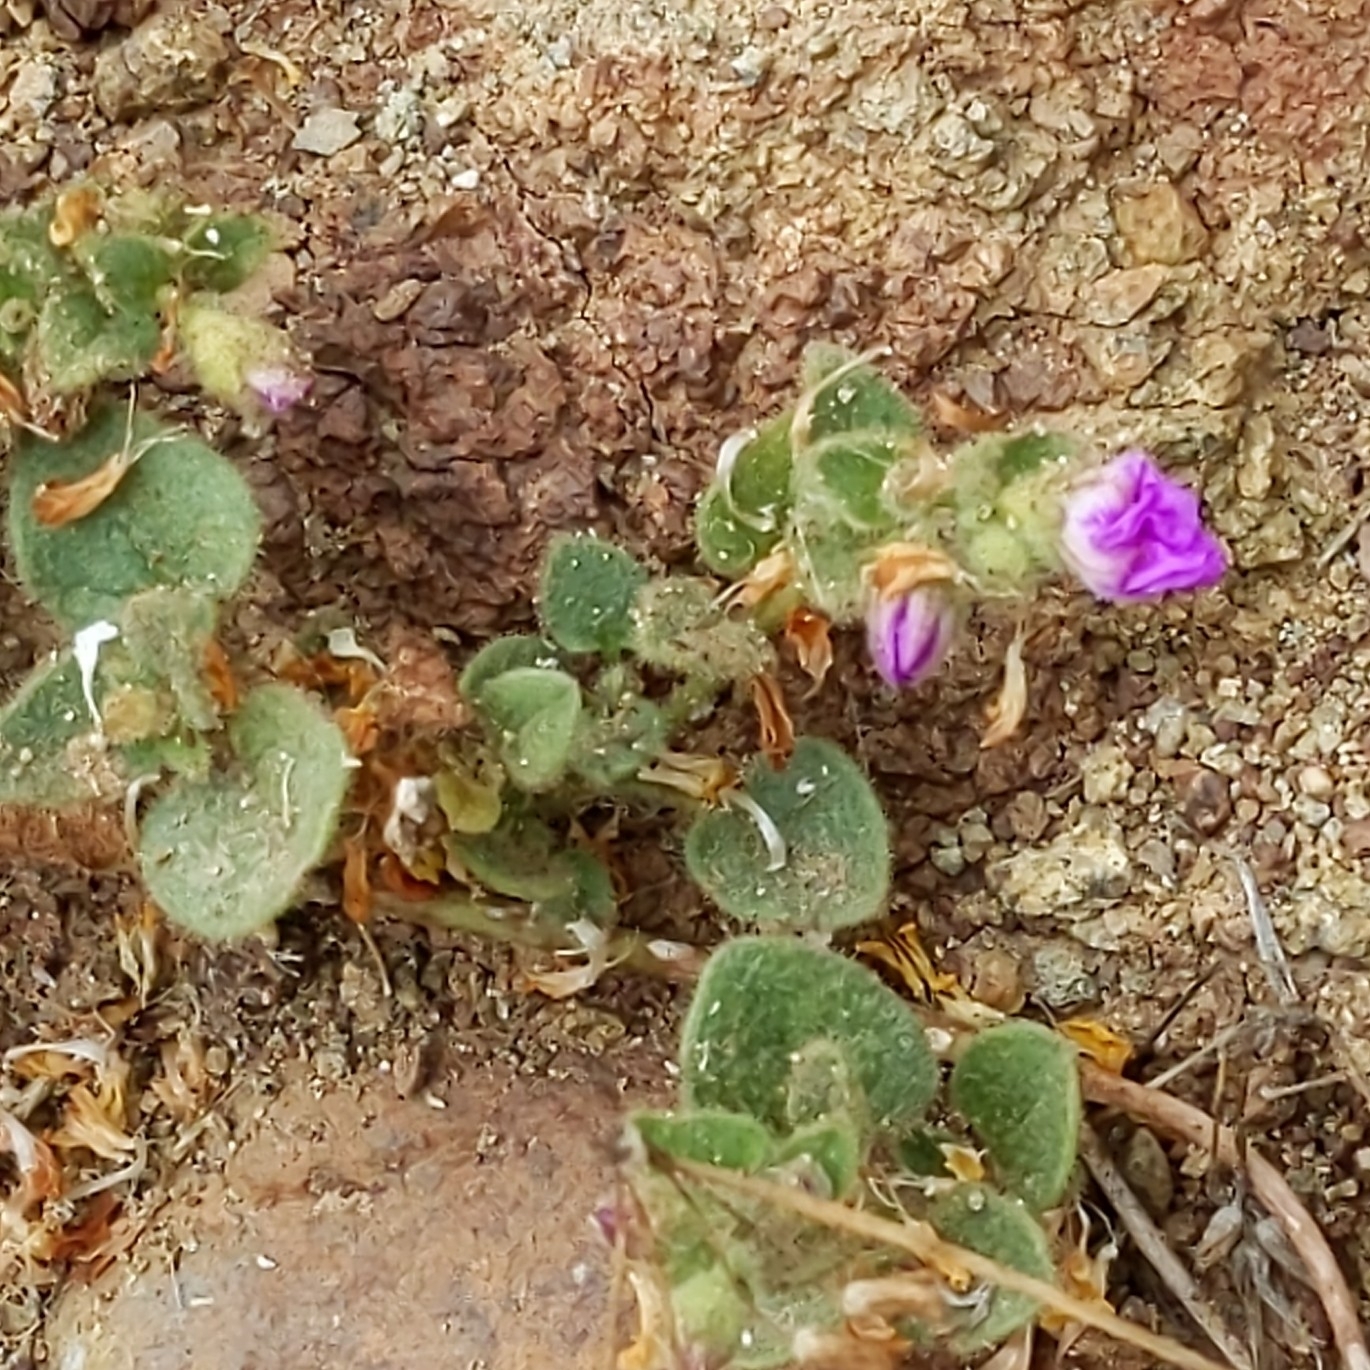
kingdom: Plantae
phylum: Tracheophyta
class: Magnoliopsida
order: Caryophyllales
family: Nyctaginaceae
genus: Mirabilis
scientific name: Mirabilis laevis
